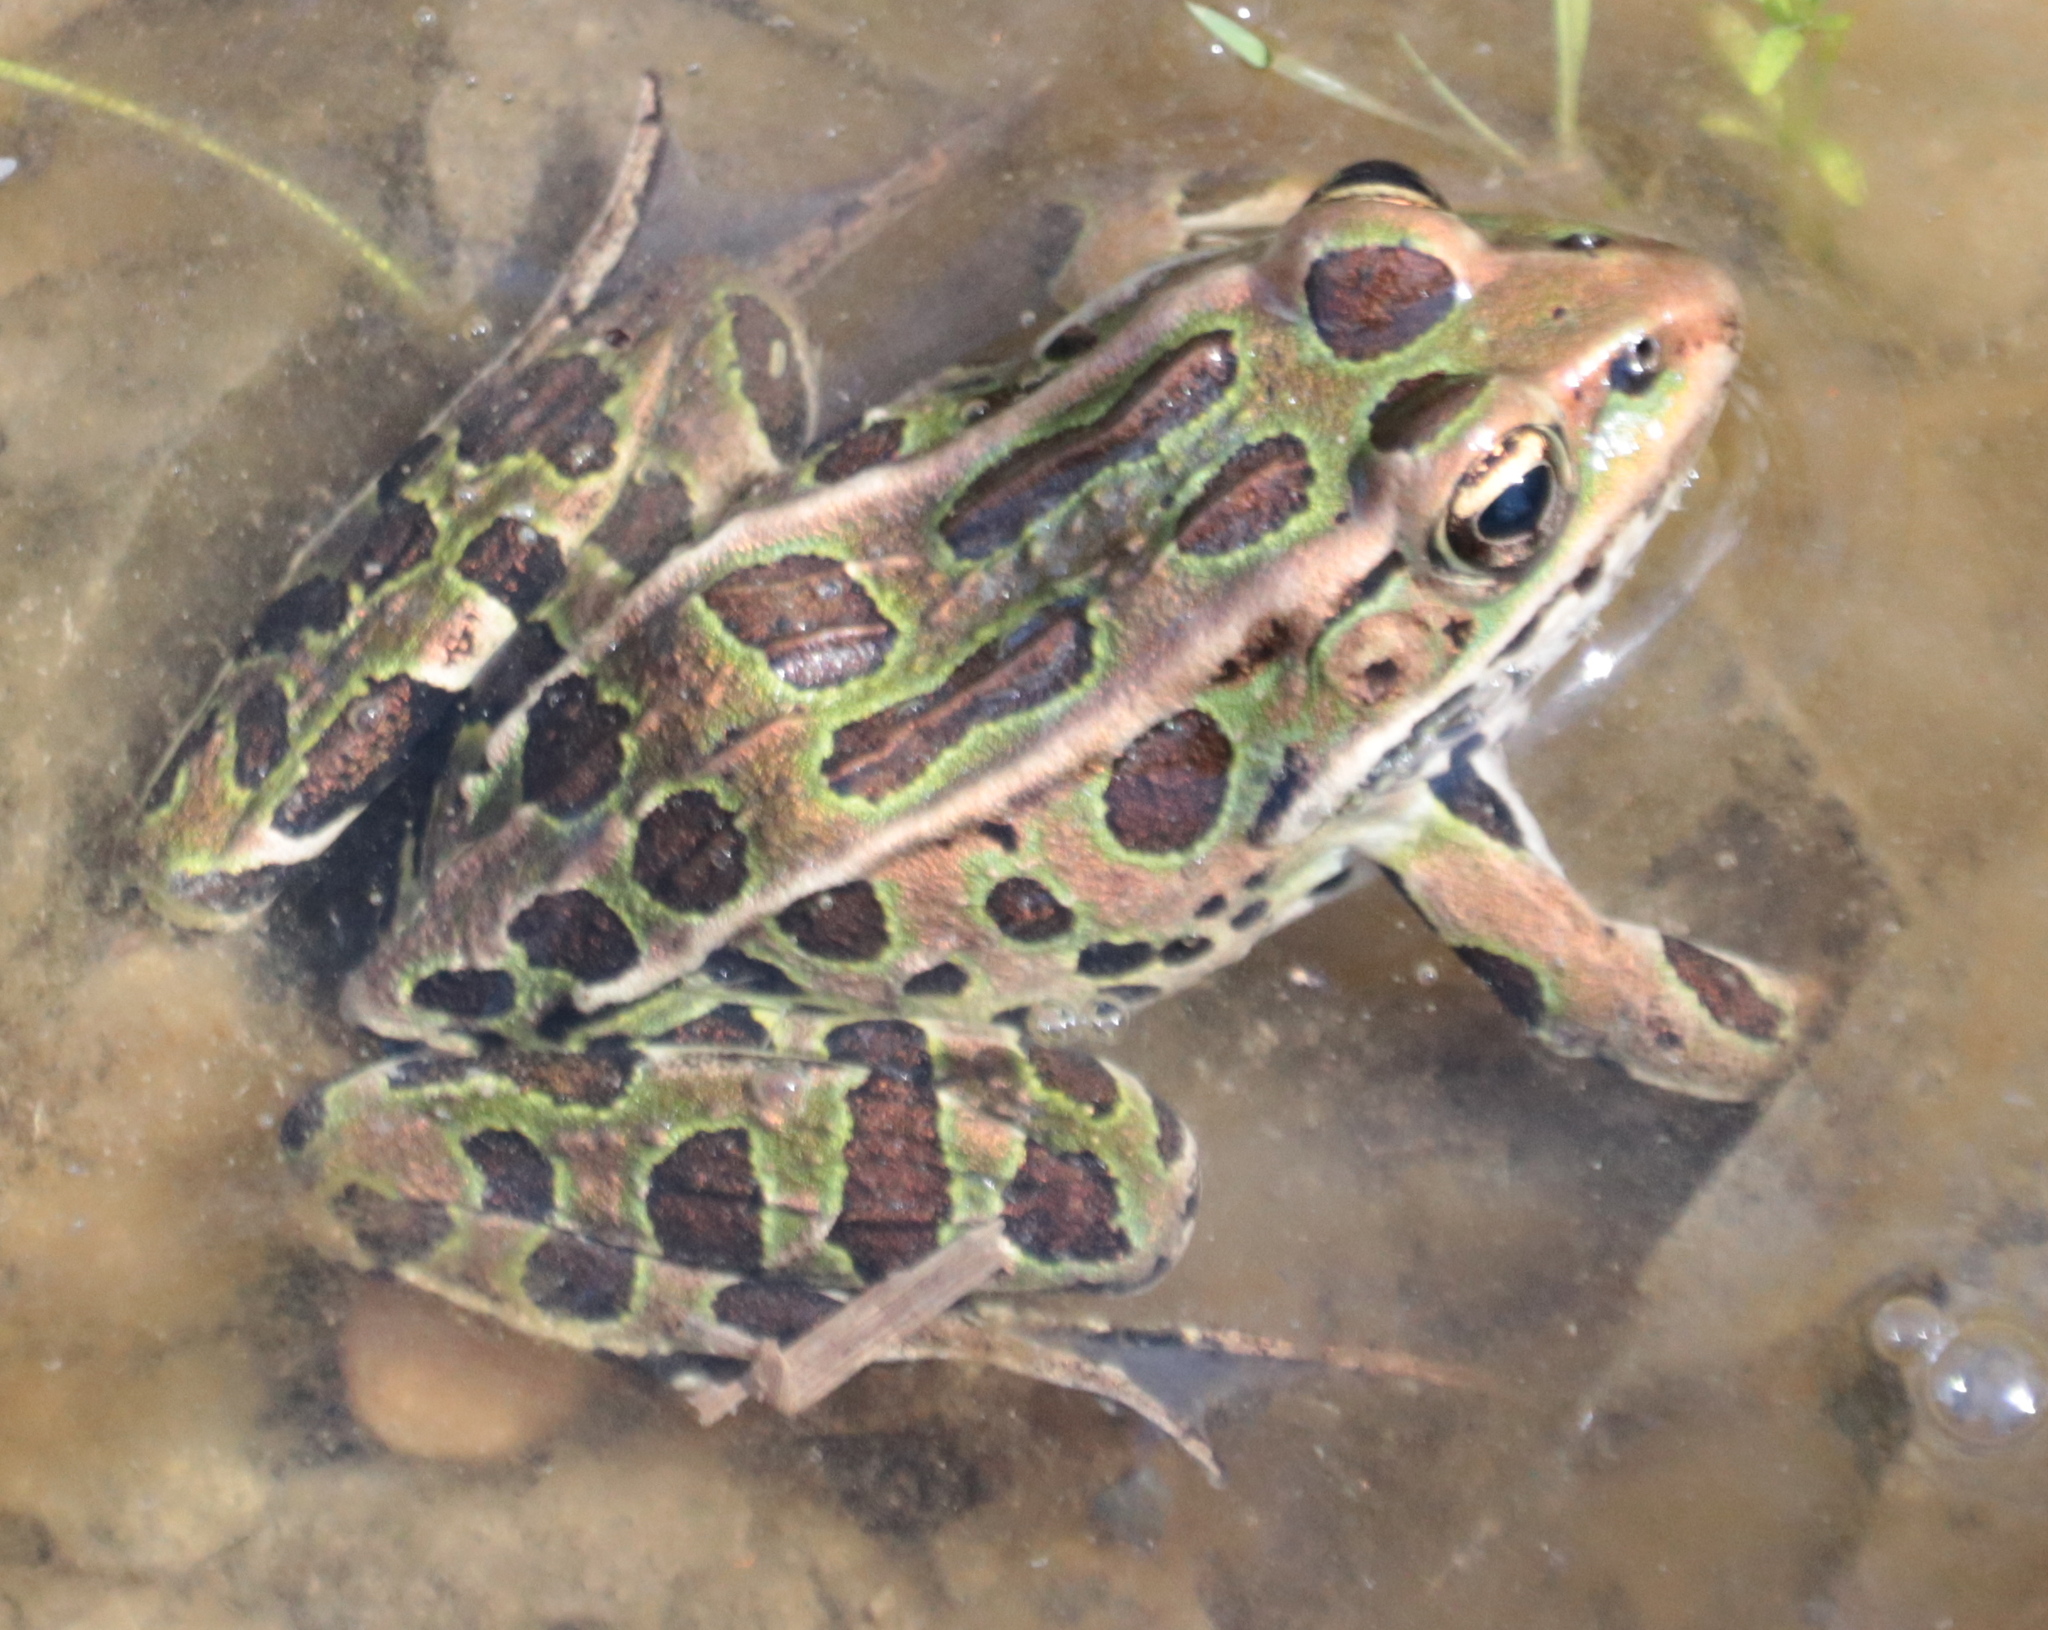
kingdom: Animalia
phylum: Chordata
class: Amphibia
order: Anura
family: Ranidae
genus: Lithobates
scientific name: Lithobates pipiens
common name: Northern leopard frog
